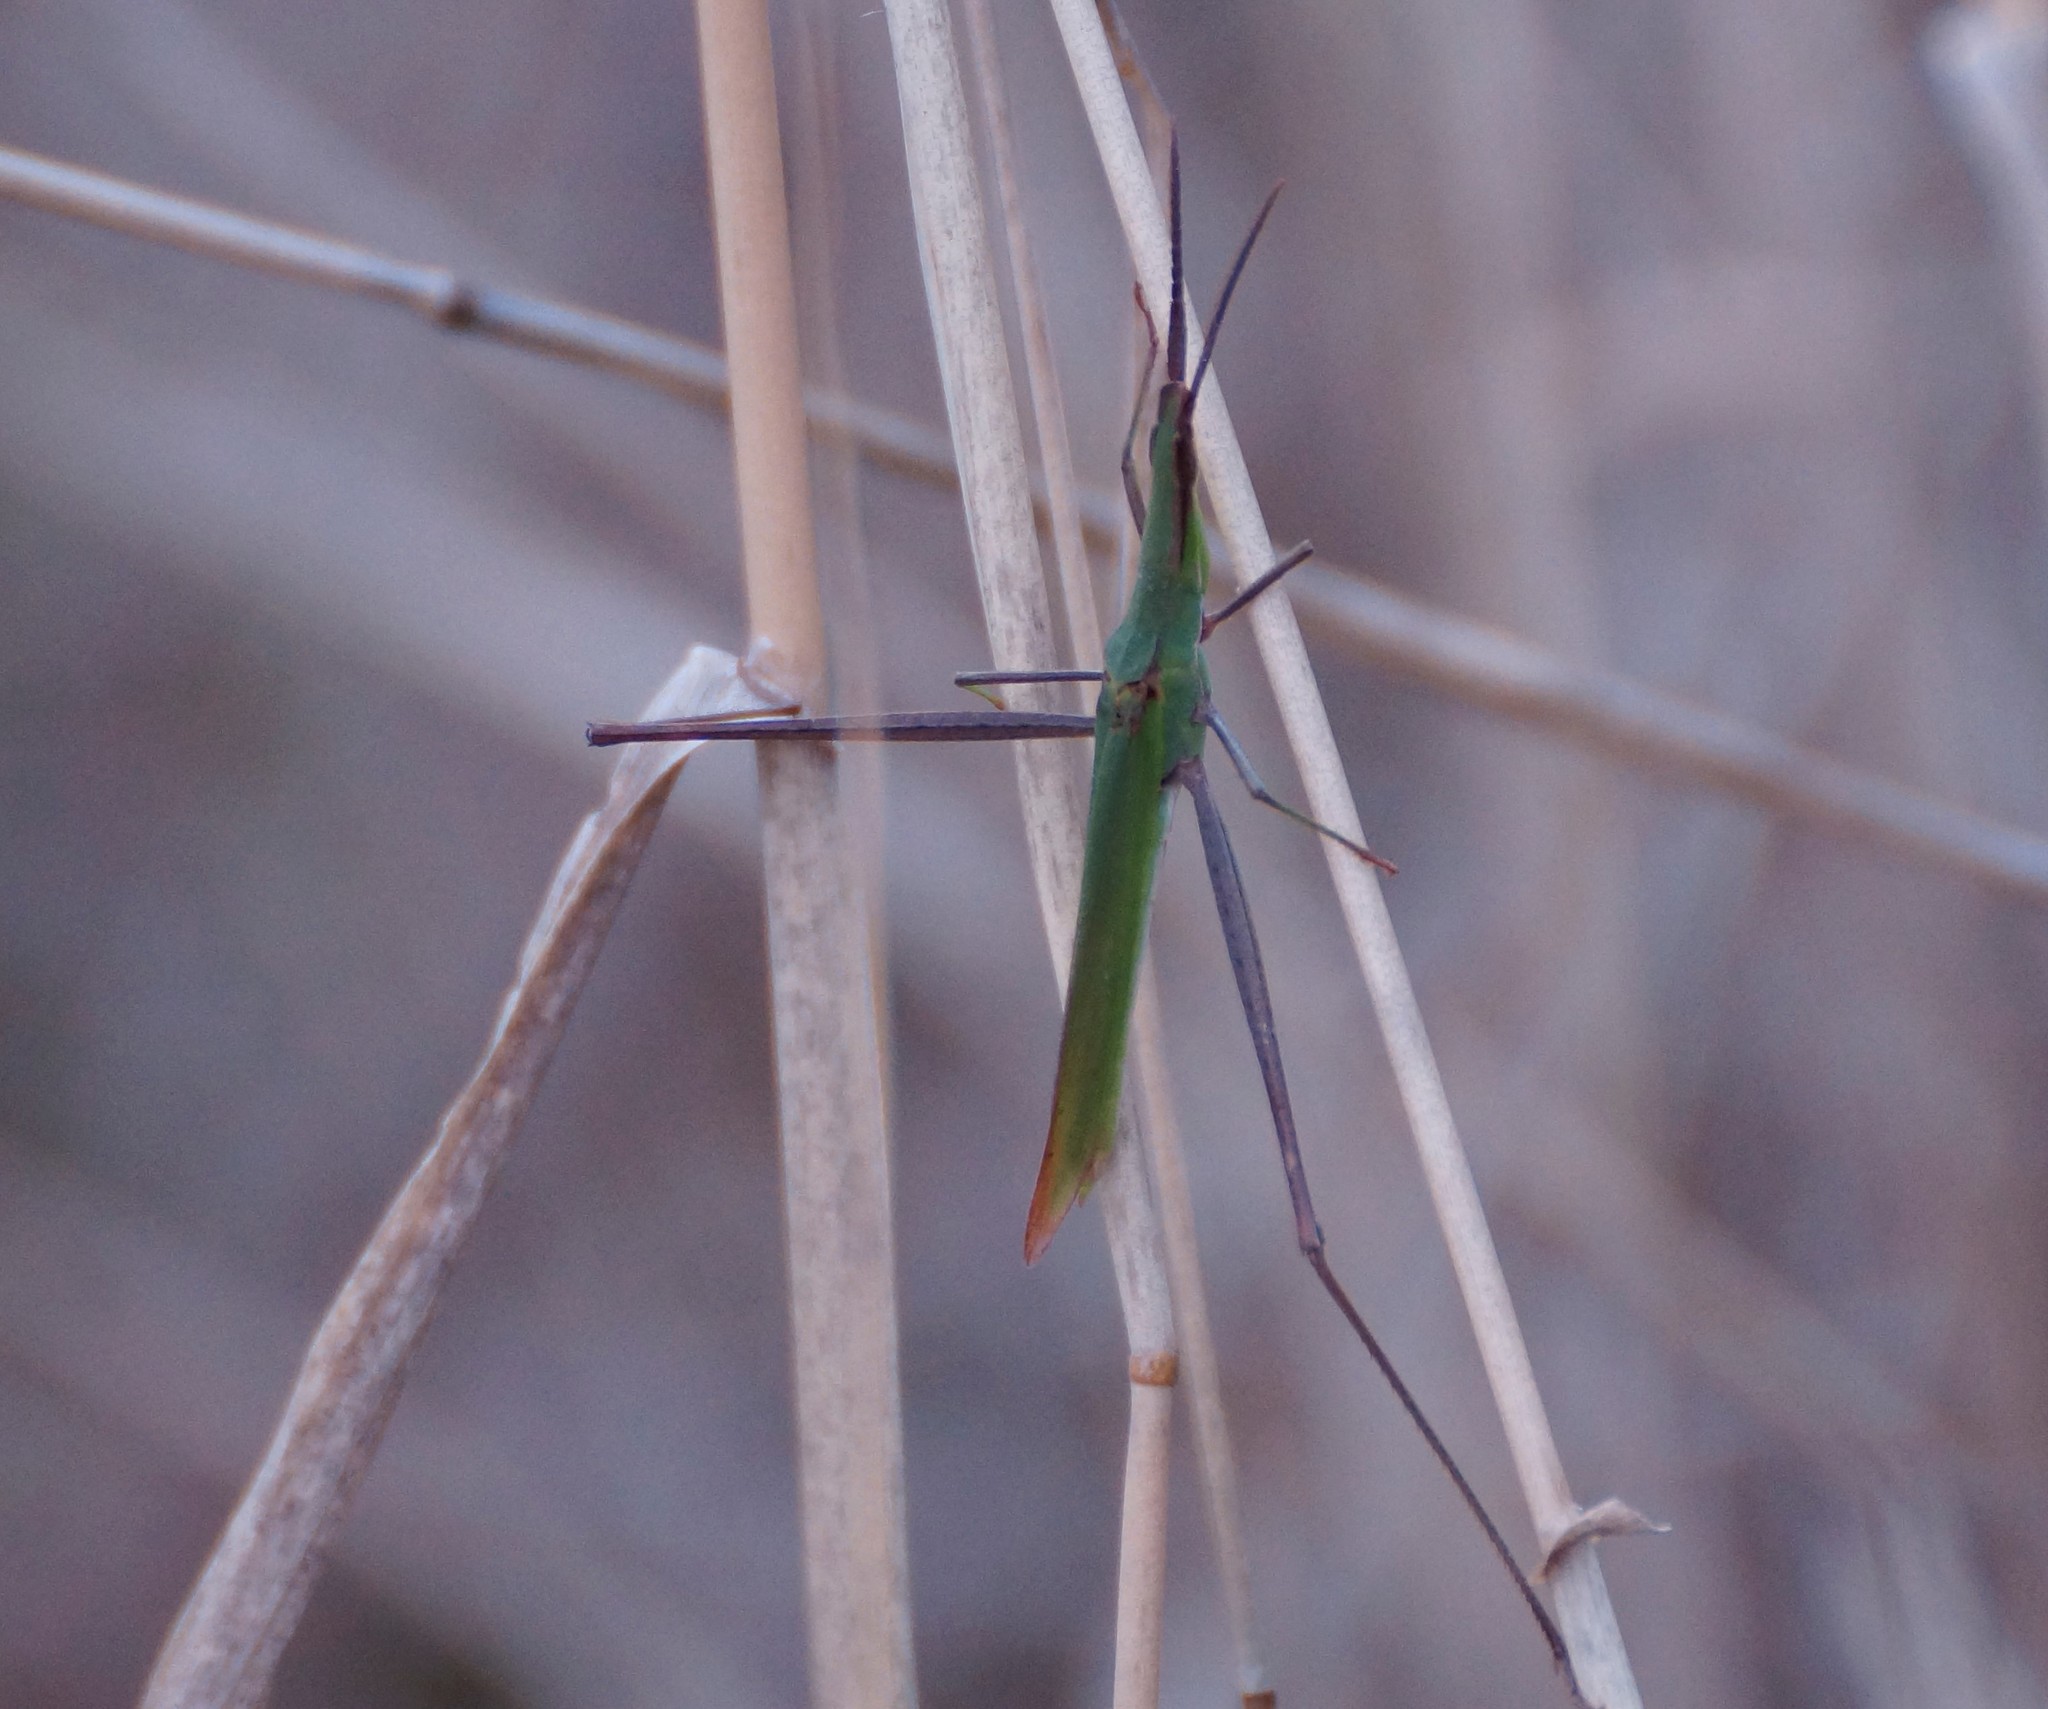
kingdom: Animalia
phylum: Arthropoda
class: Insecta
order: Orthoptera
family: Acrididae
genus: Acrida
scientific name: Acrida conica
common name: Giant green slantface
